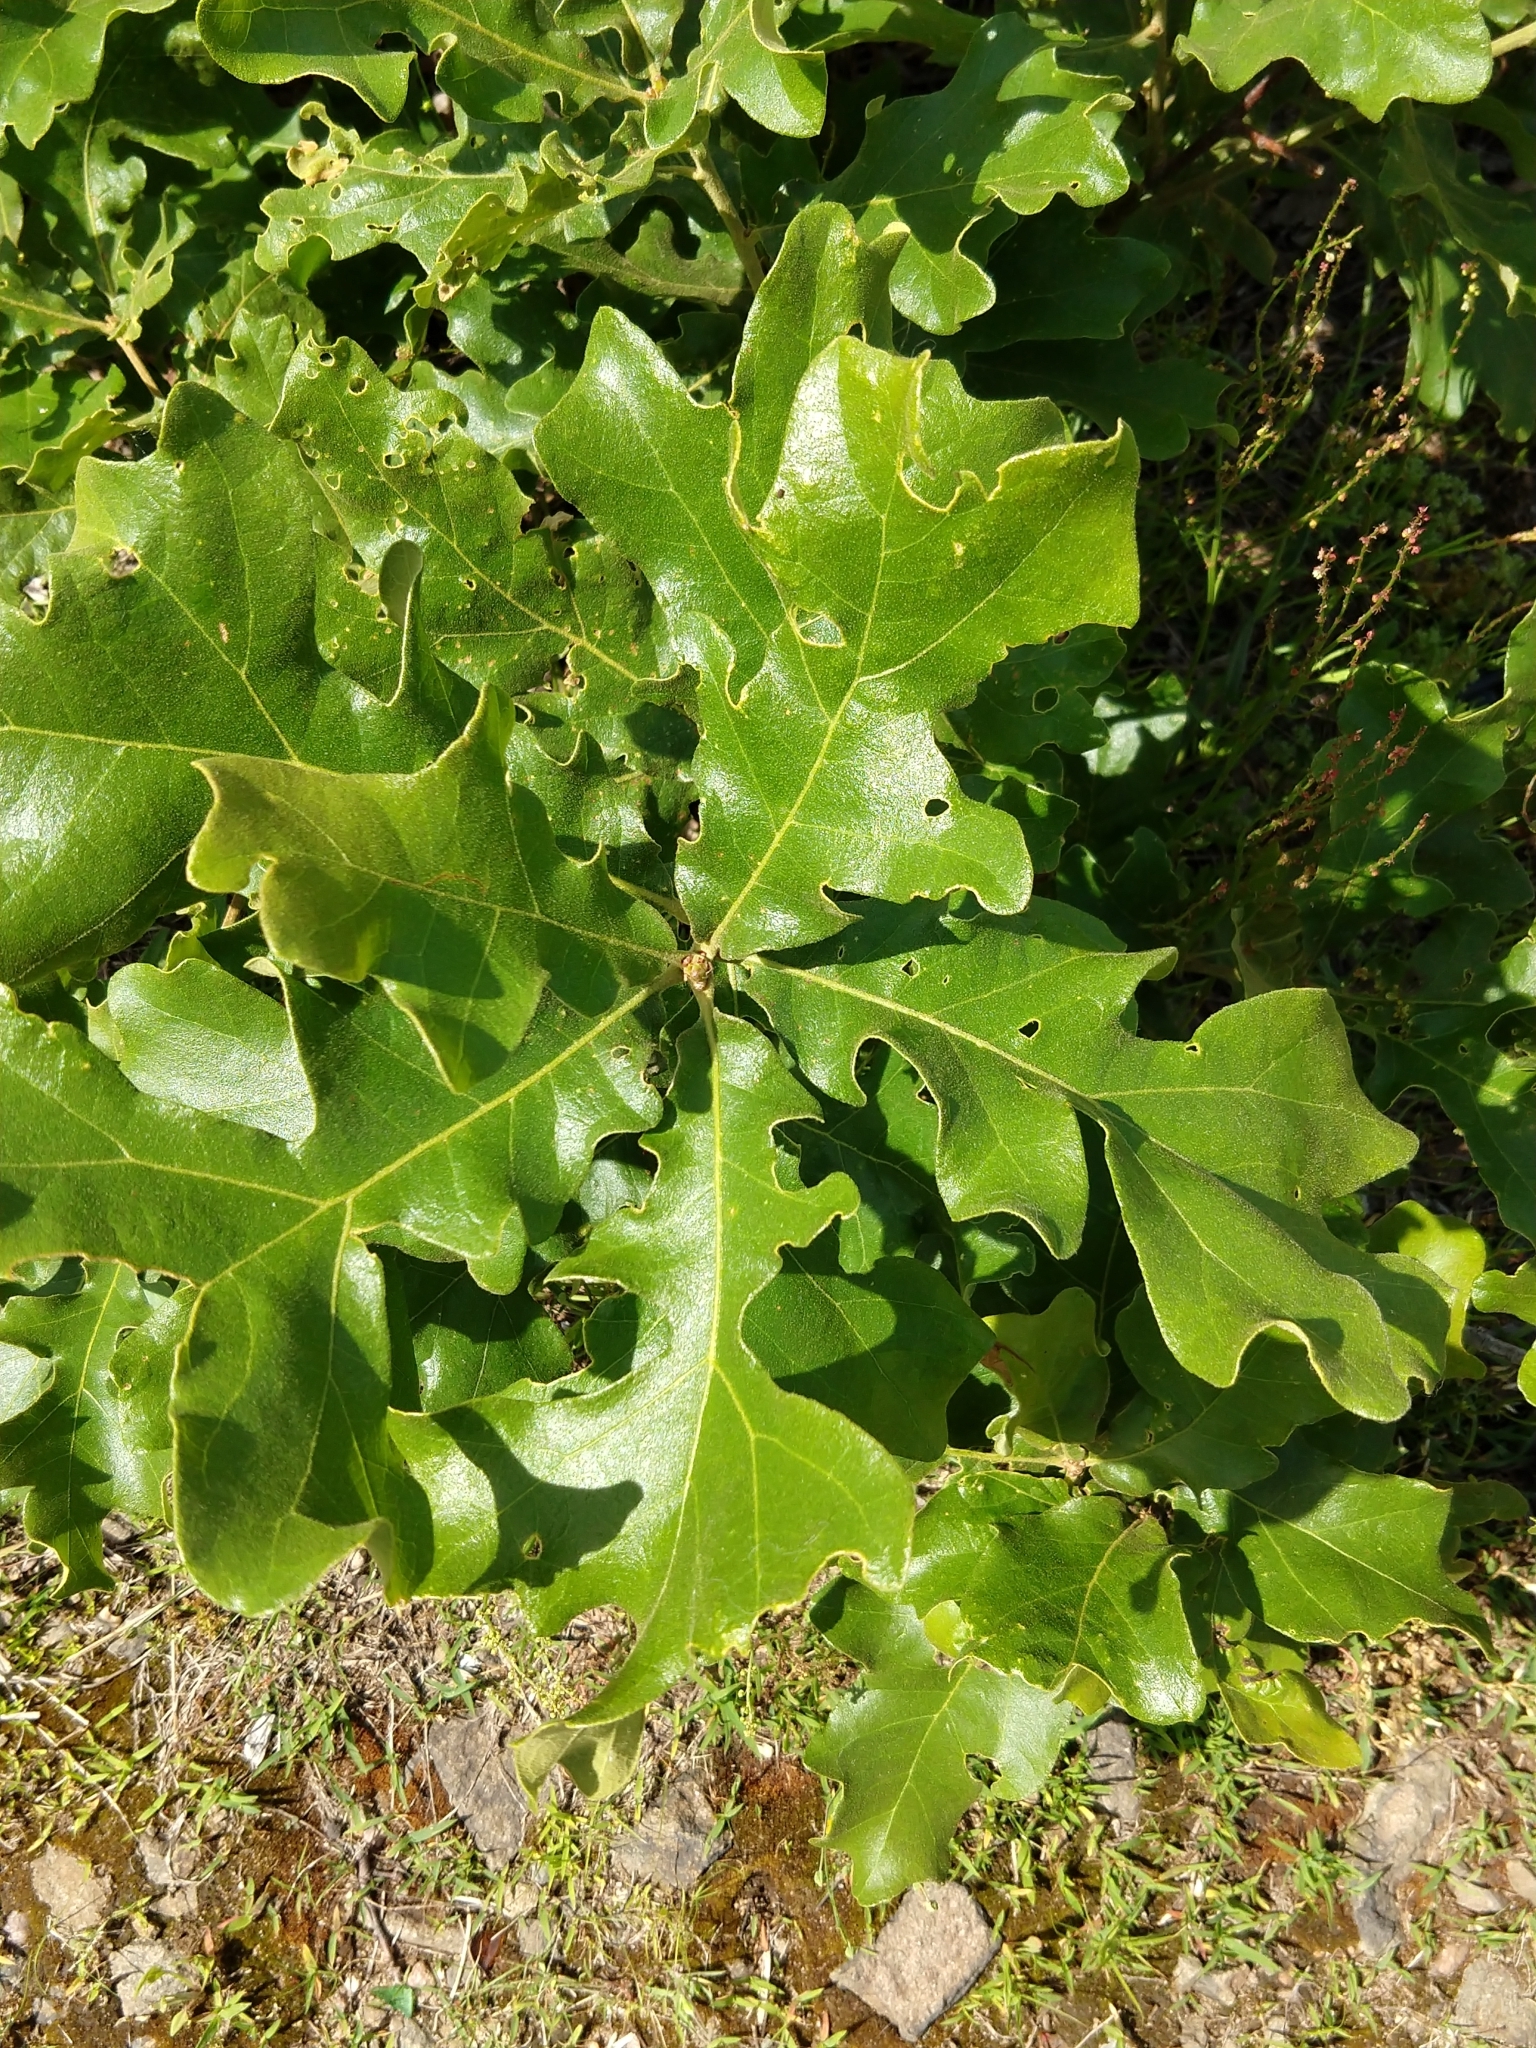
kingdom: Plantae
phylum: Tracheophyta
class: Magnoliopsida
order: Fagales
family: Fagaceae
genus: Quercus
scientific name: Quercus stellata
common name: Post oak
